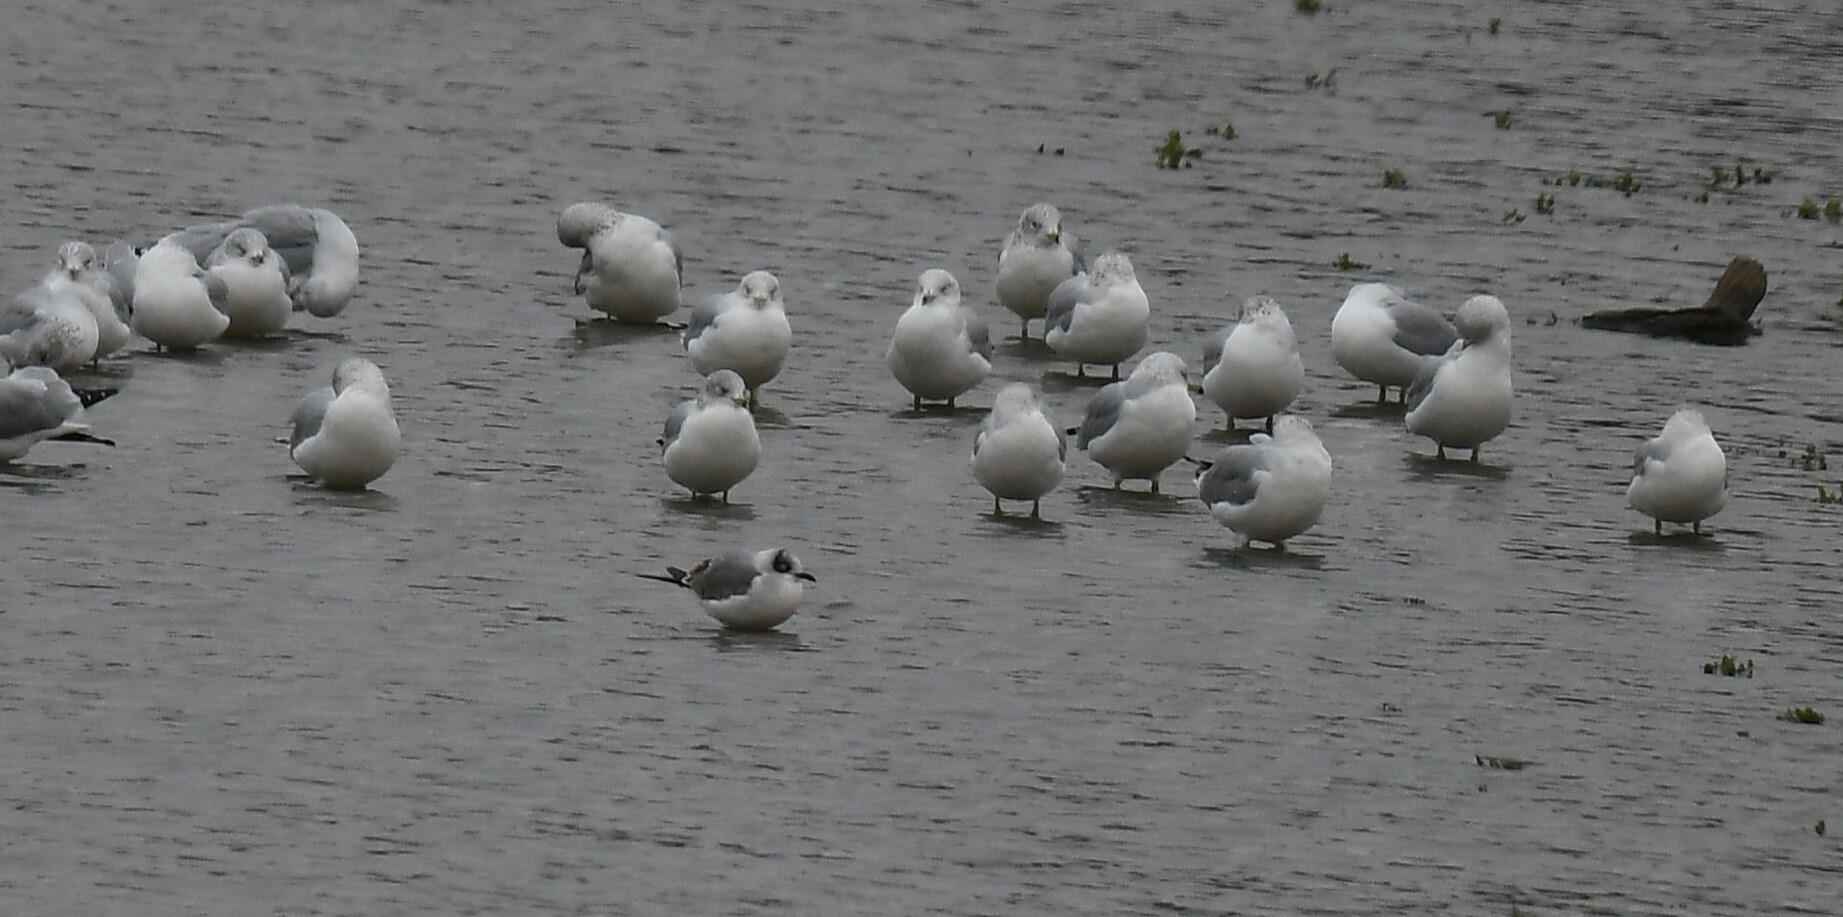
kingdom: Animalia
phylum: Chordata
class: Aves
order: Charadriiformes
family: Laridae
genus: Leucophaeus
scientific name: Leucophaeus pipixcan
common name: Franklin's gull
